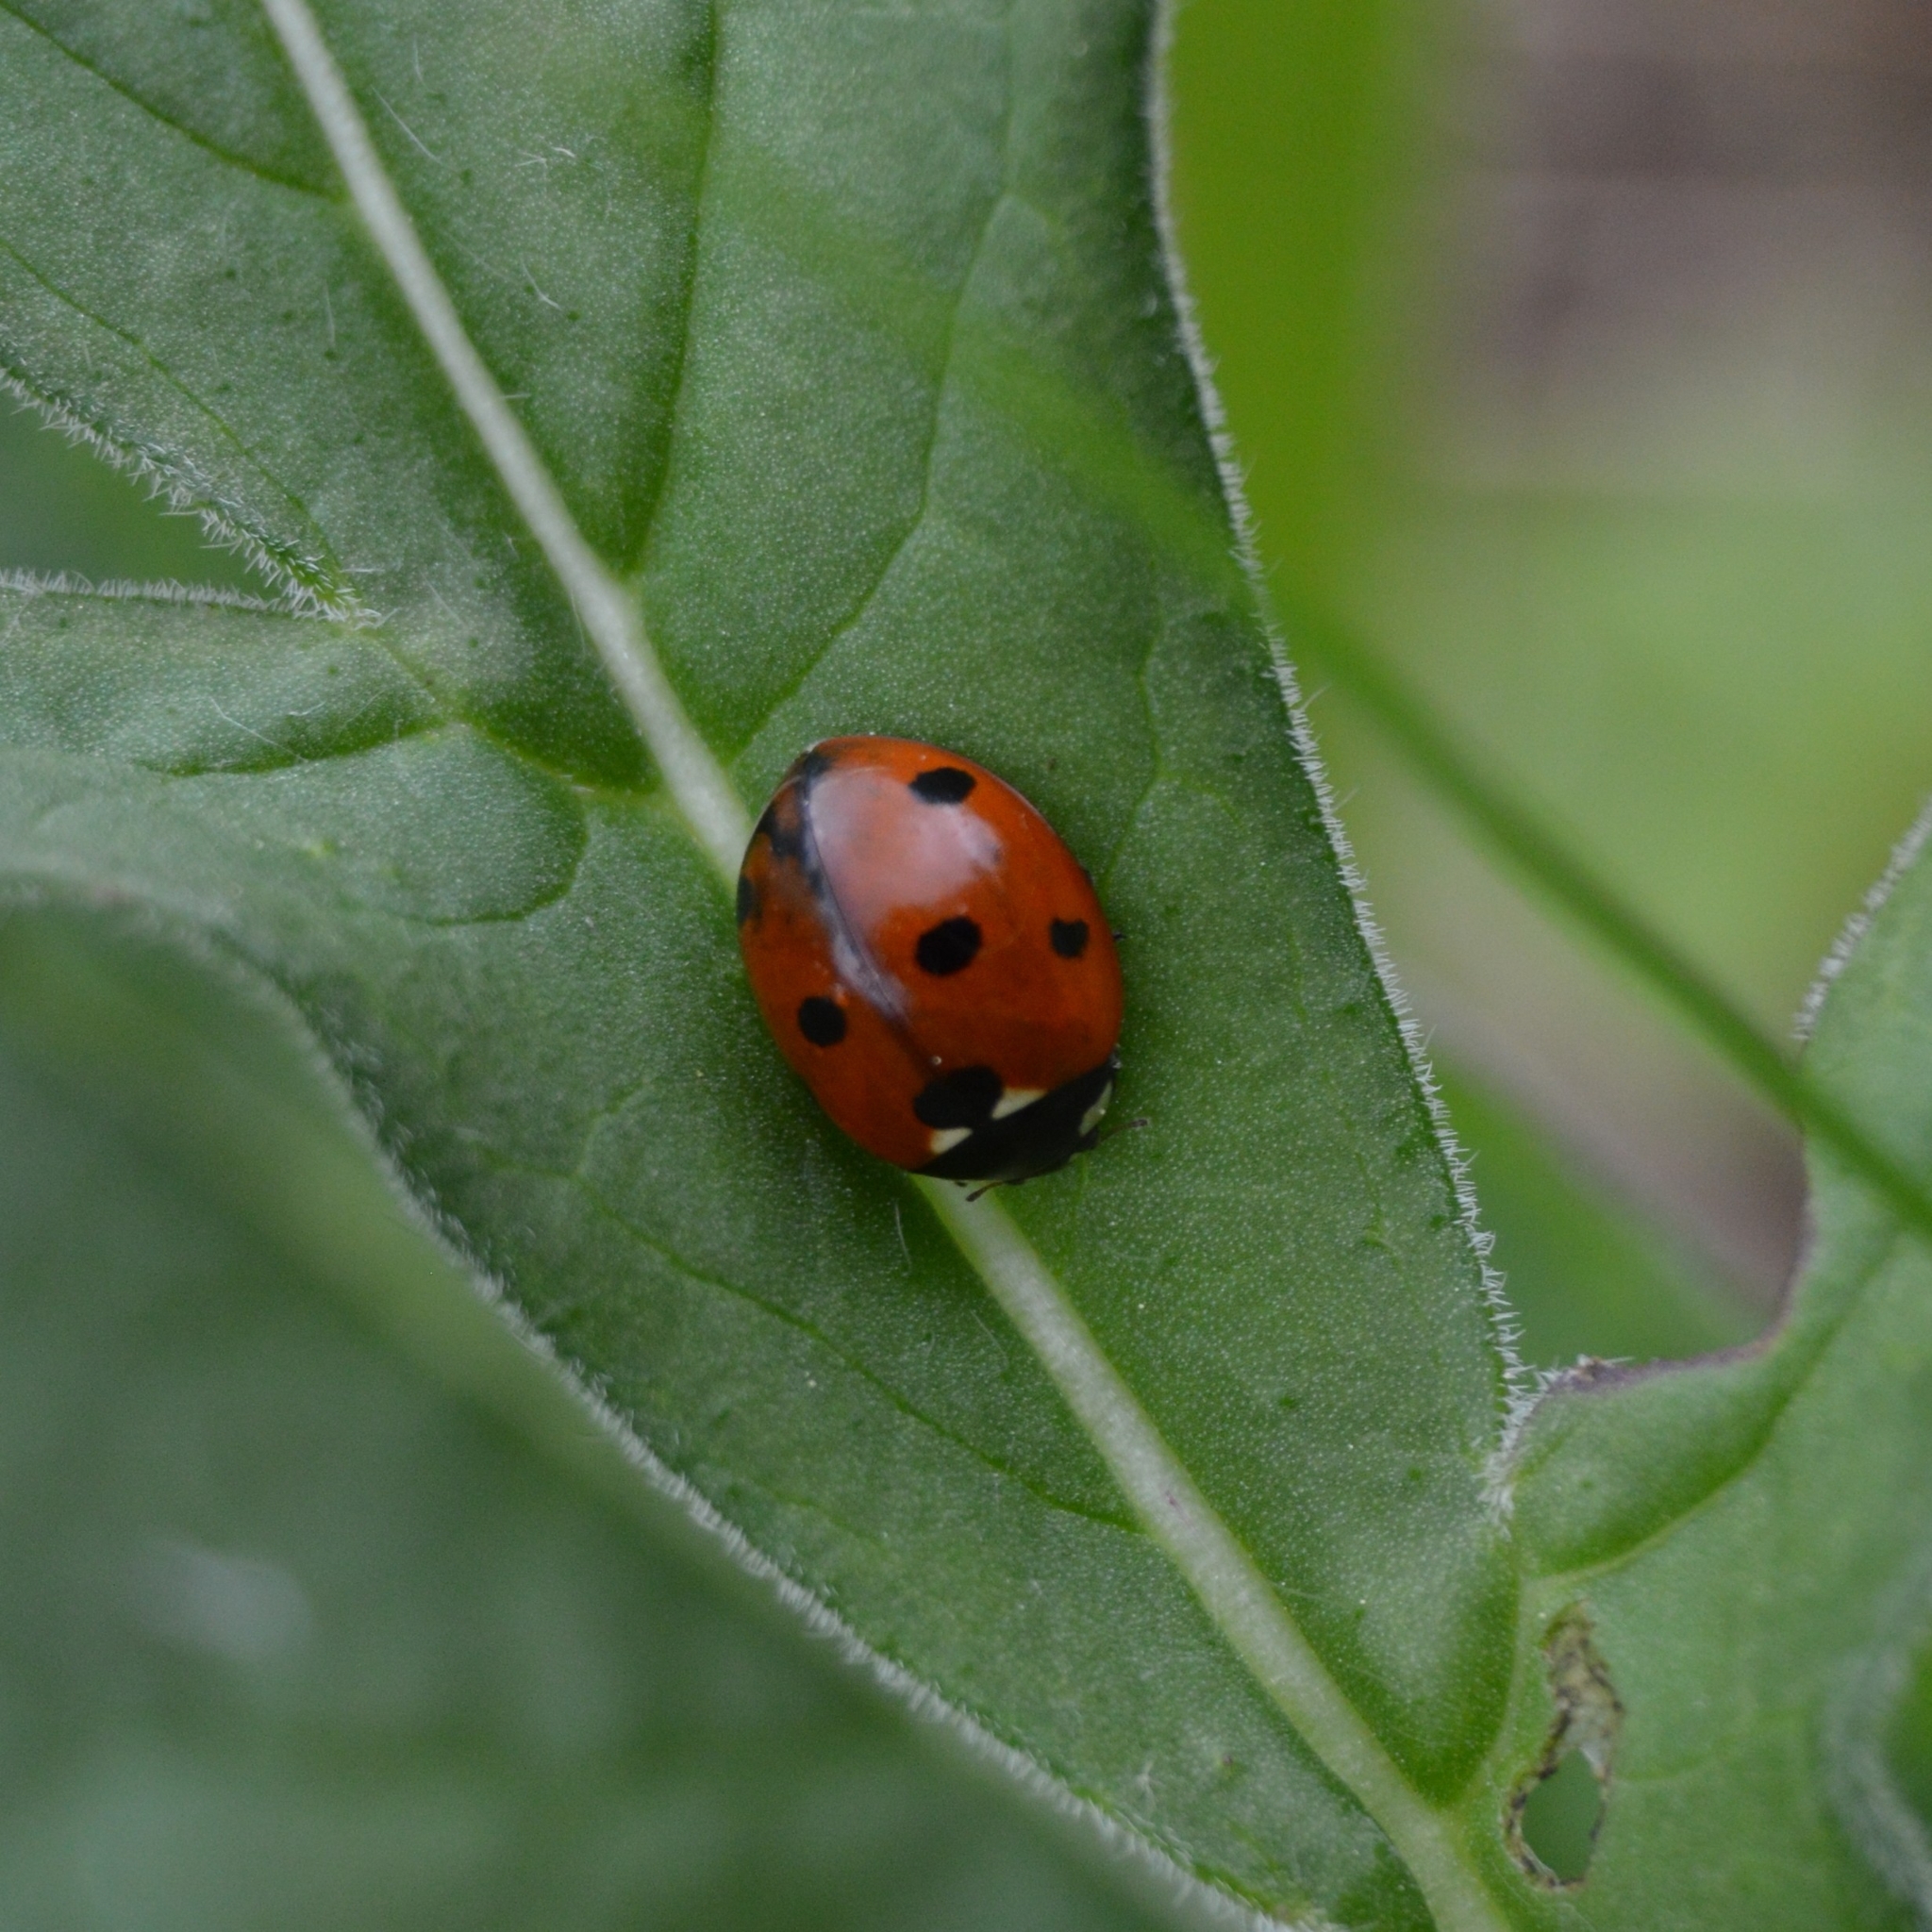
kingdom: Animalia
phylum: Arthropoda
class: Insecta
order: Coleoptera
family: Coccinellidae
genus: Coccinella
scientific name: Coccinella septempunctata
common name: Sevenspotted lady beetle
